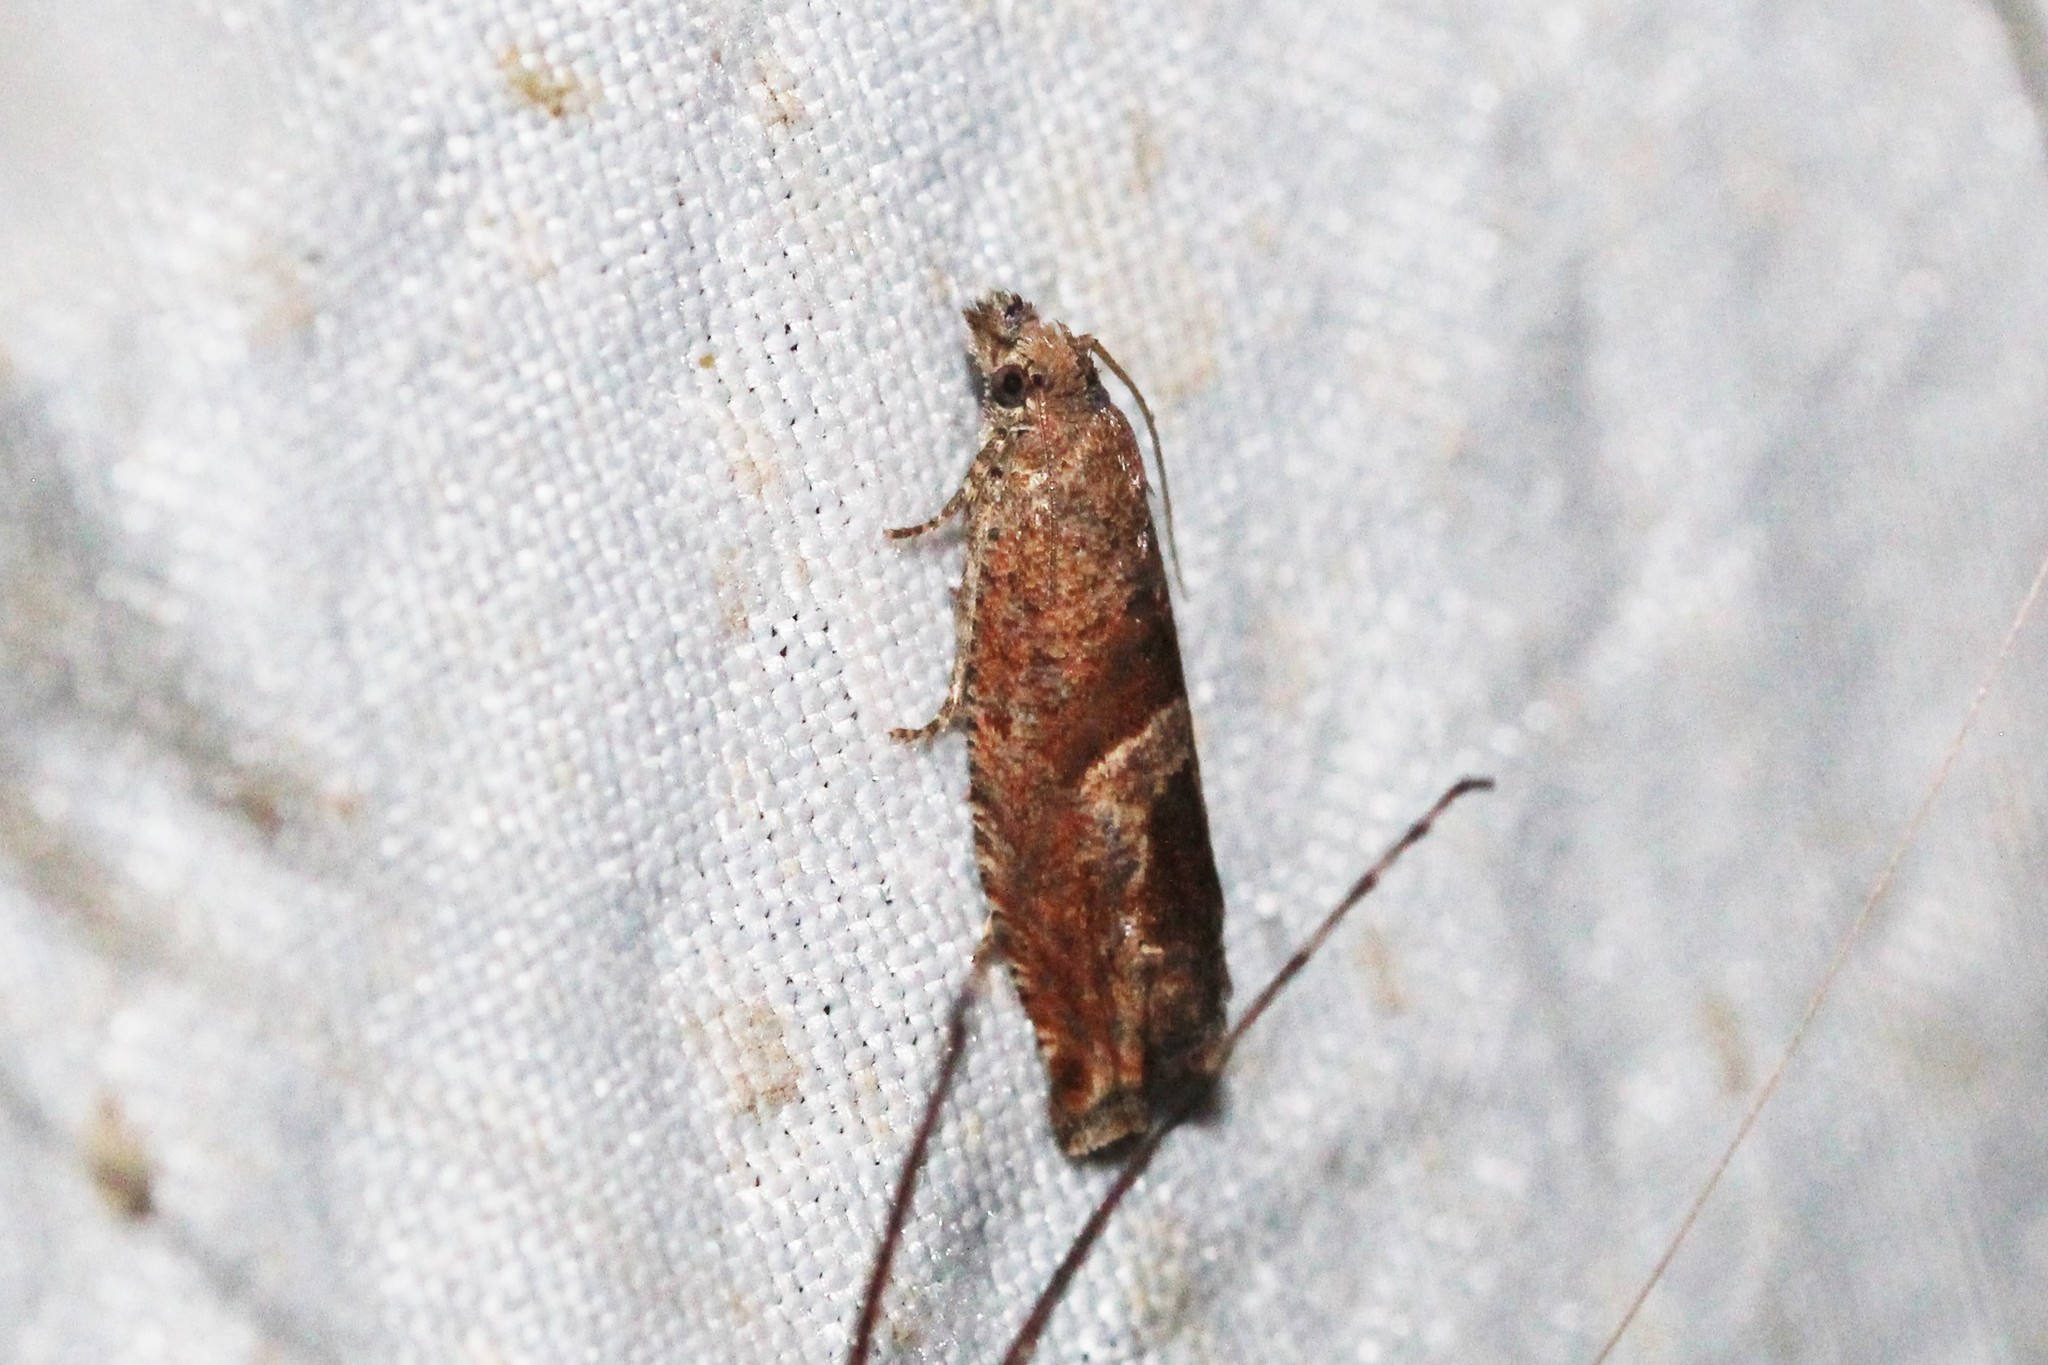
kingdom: Animalia
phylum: Arthropoda
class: Insecta
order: Lepidoptera
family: Tortricidae
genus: Sonia
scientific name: Sonia canadana
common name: Canadian sonia moth
